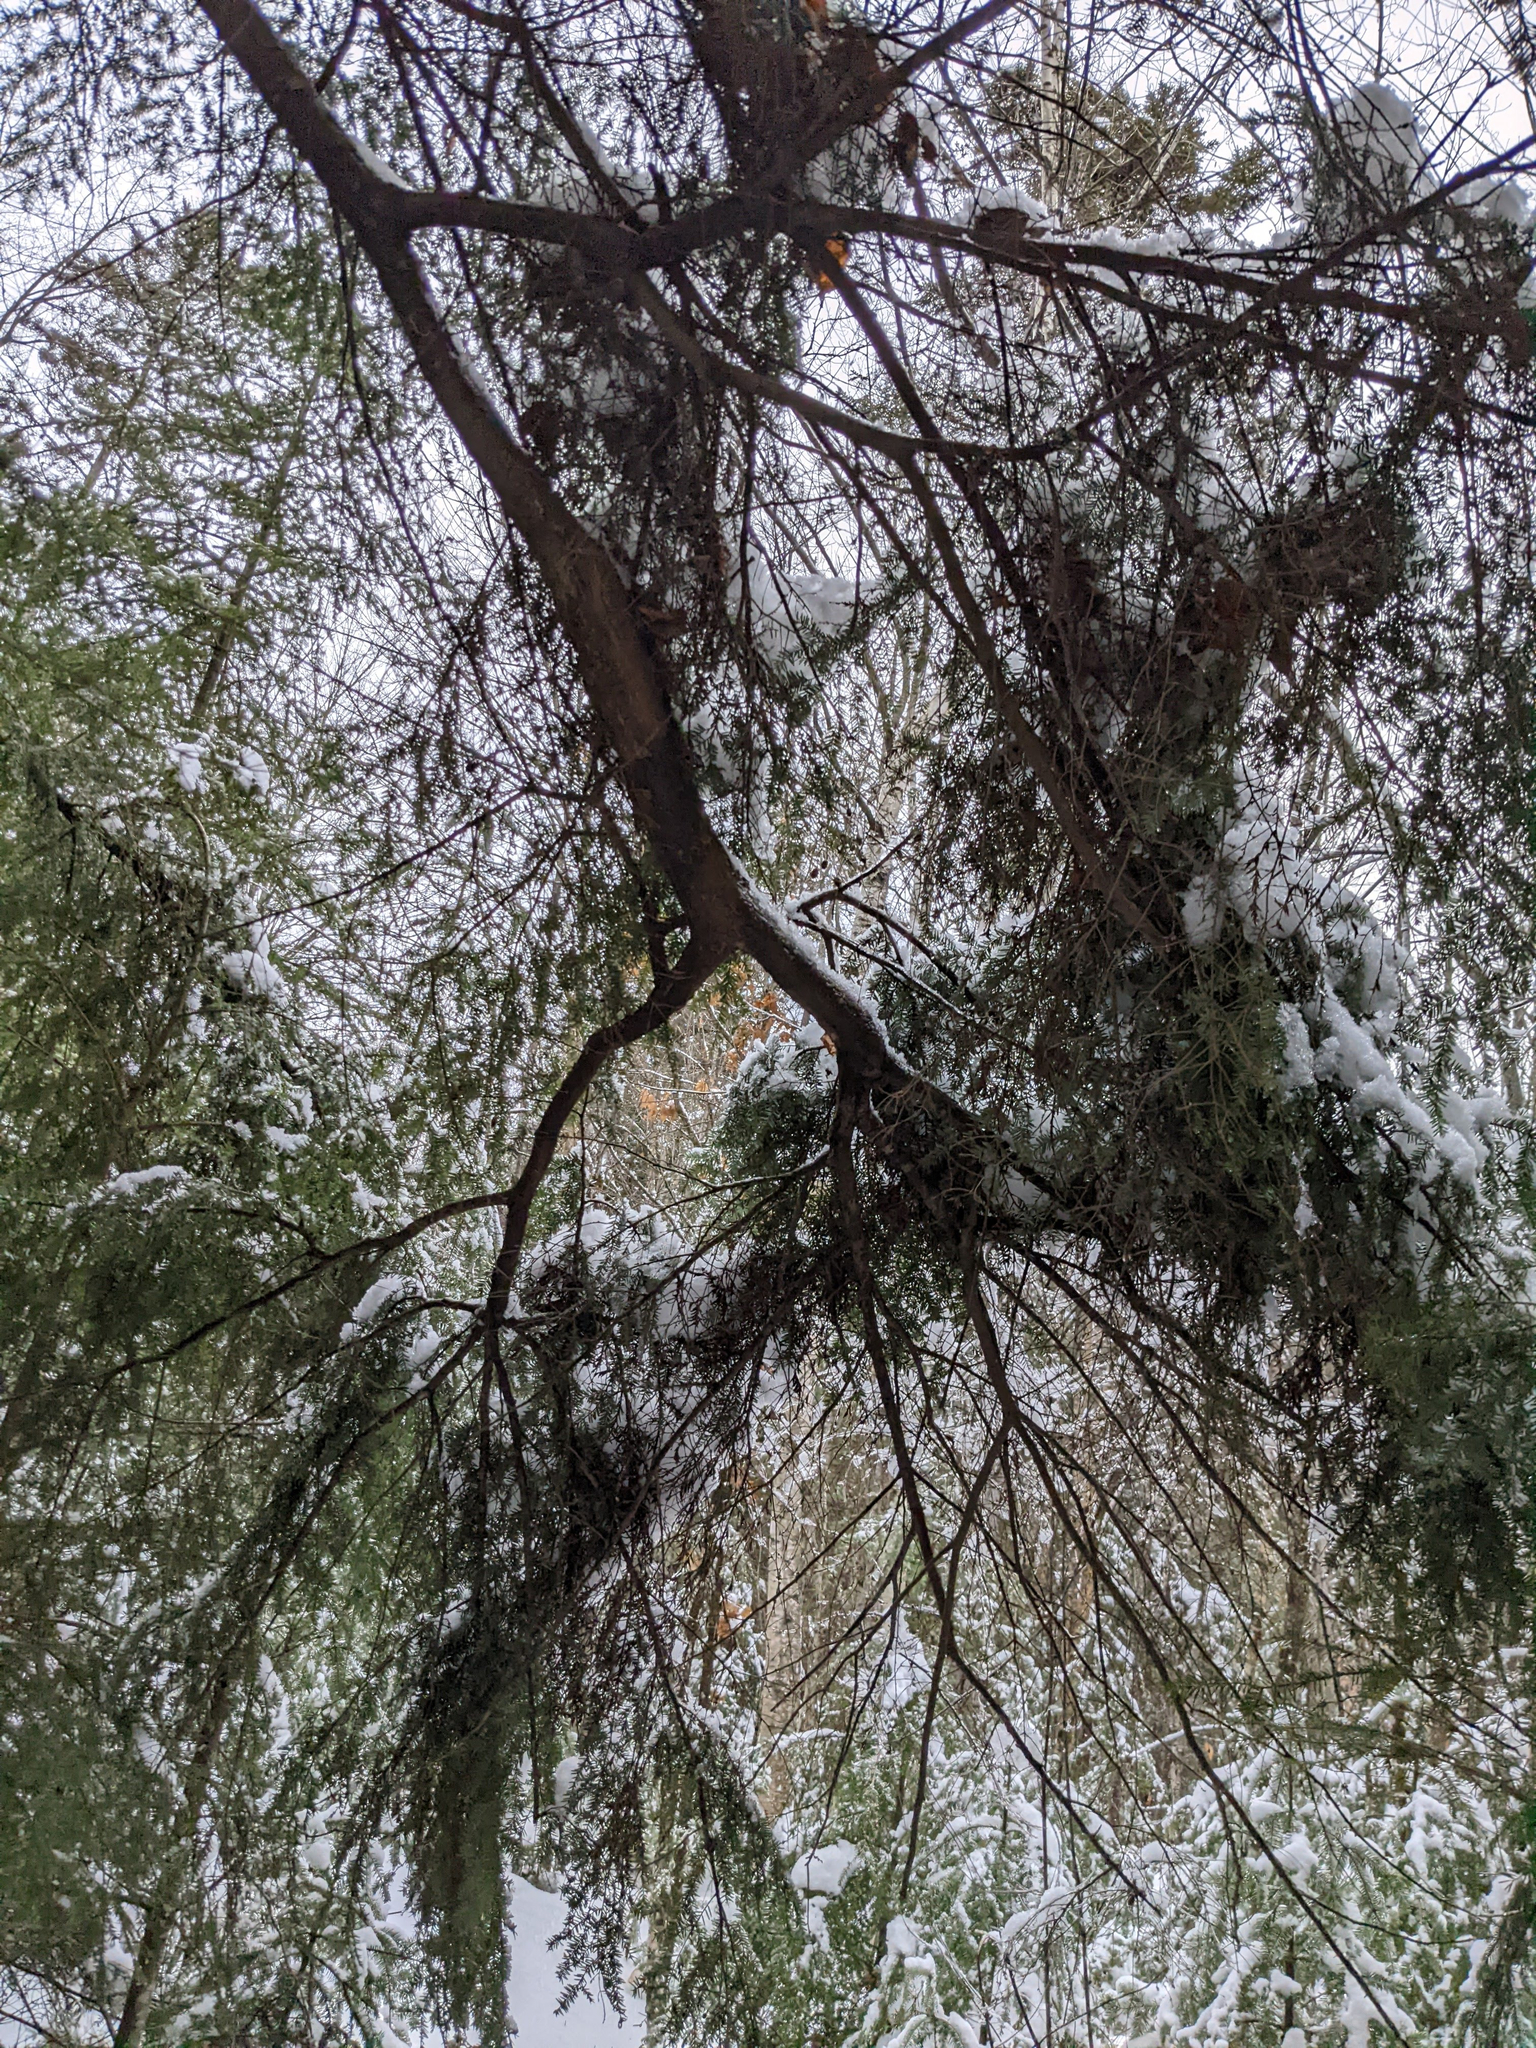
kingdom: Plantae
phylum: Tracheophyta
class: Pinopsida
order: Pinales
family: Pinaceae
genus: Tsuga
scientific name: Tsuga canadensis
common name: Eastern hemlock
